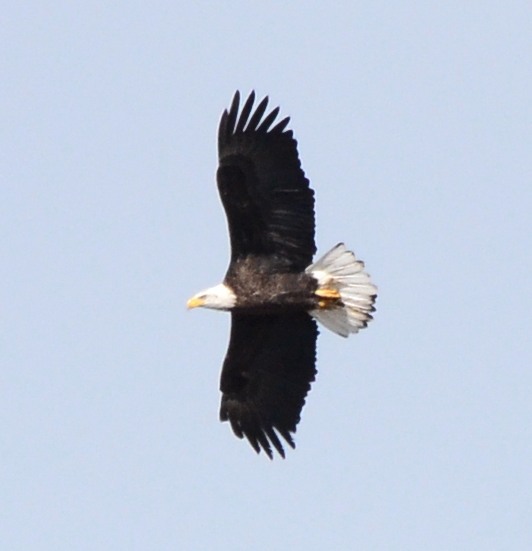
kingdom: Animalia
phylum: Chordata
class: Aves
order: Accipitriformes
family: Accipitridae
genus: Haliaeetus
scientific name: Haliaeetus leucocephalus
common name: Bald eagle
